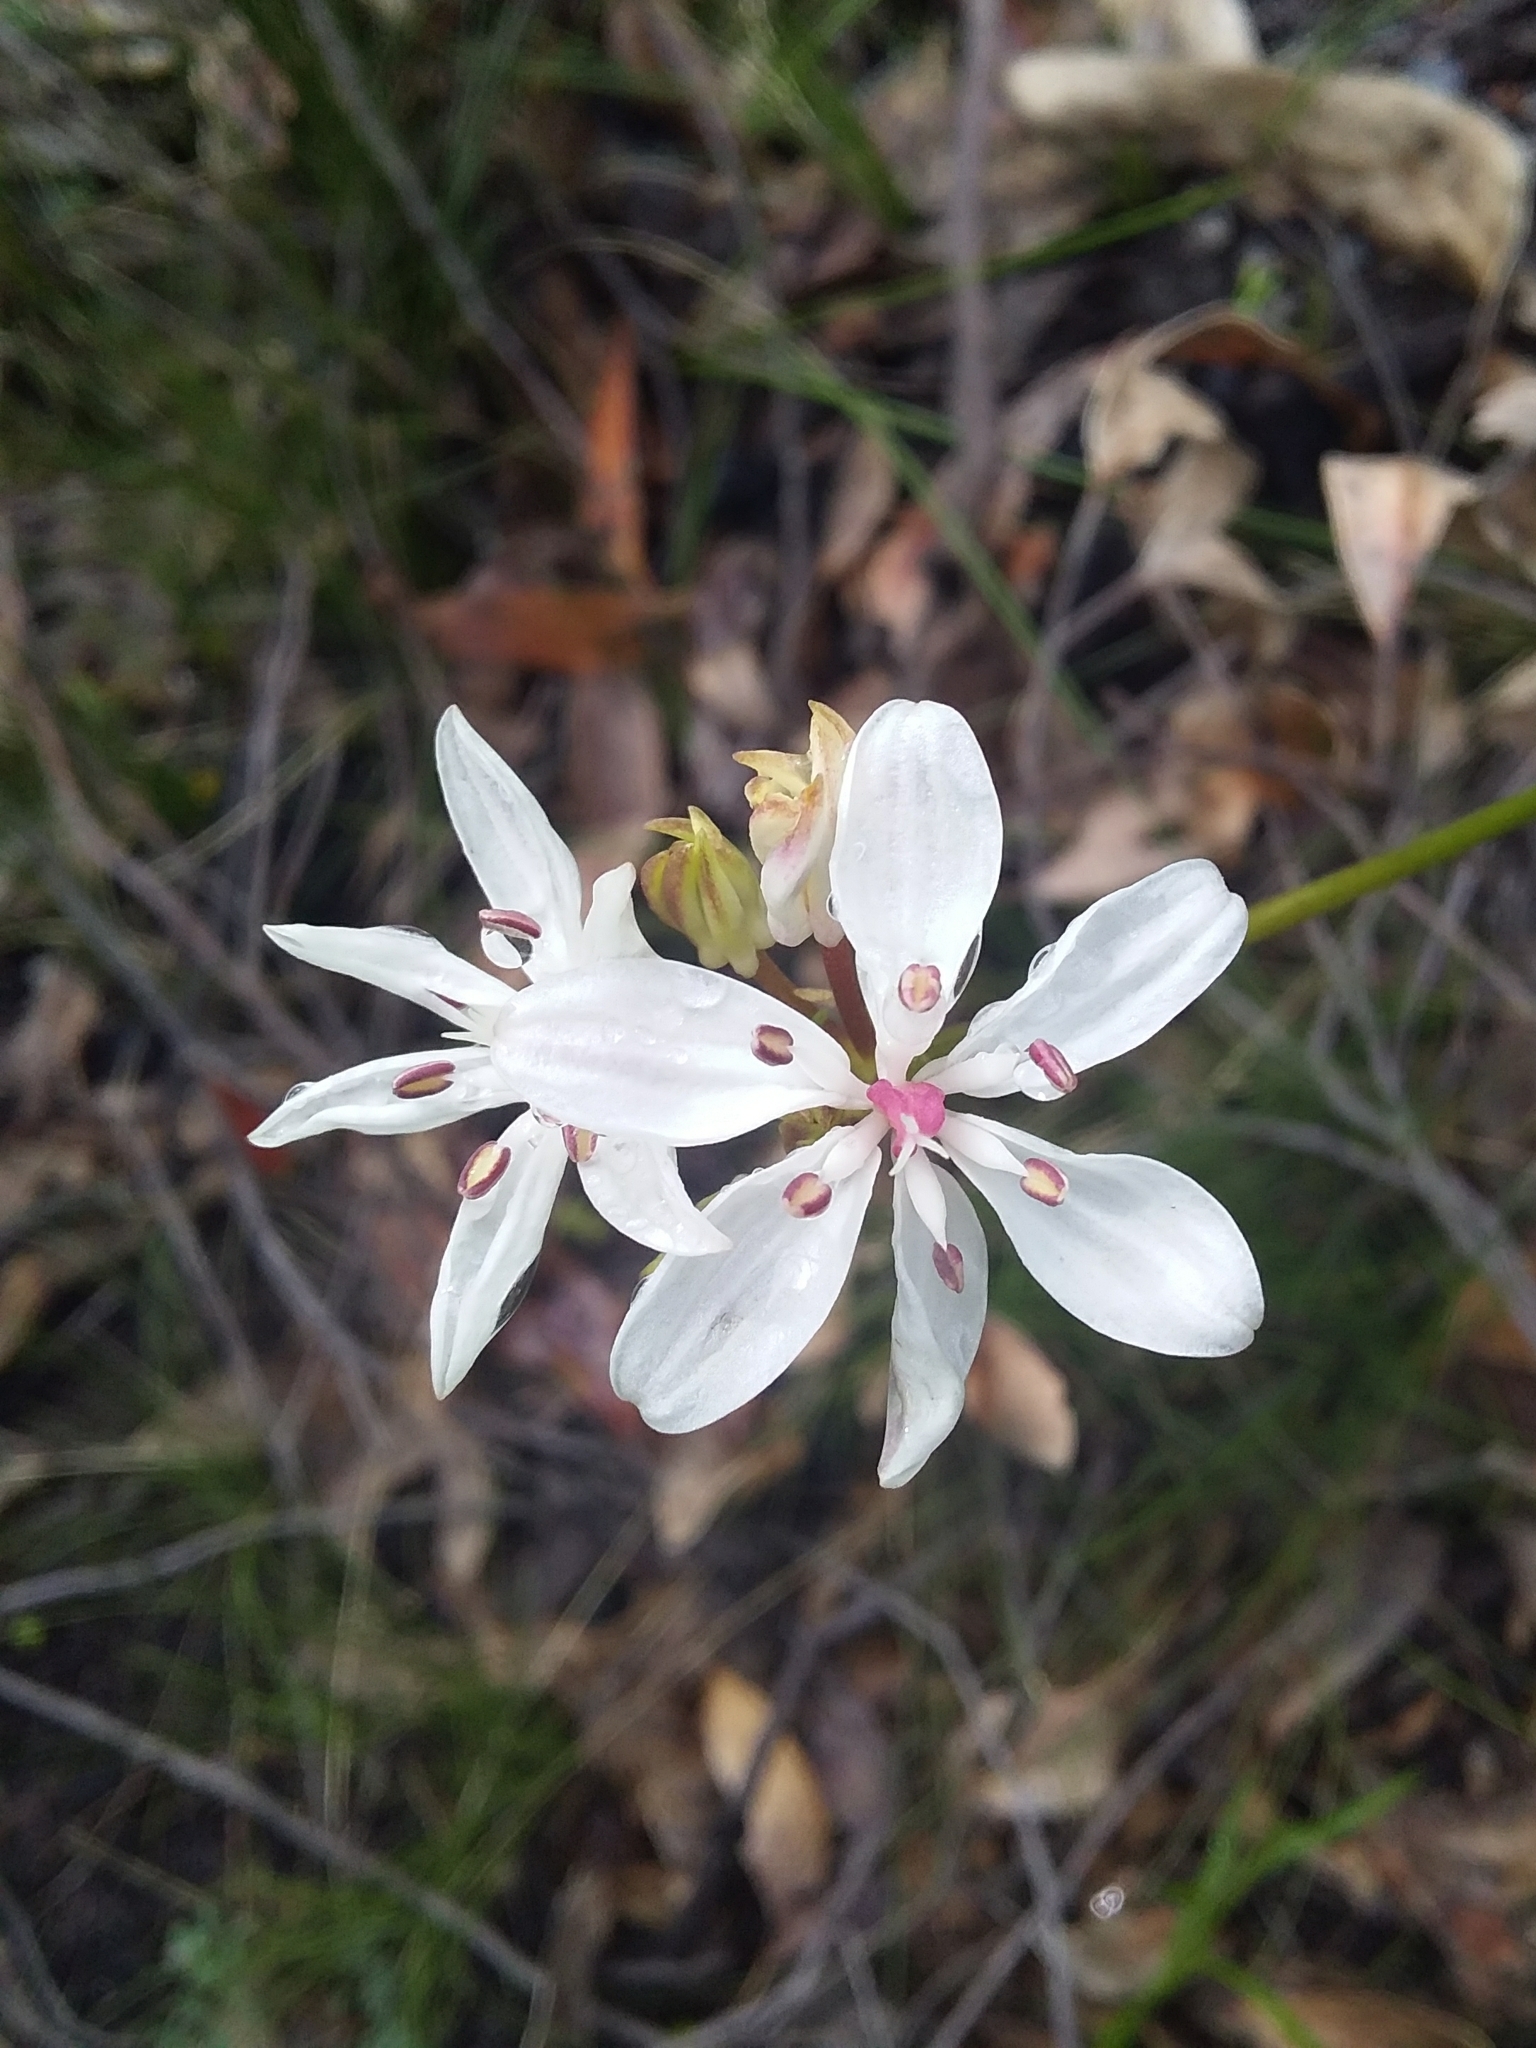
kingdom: Plantae
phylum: Tracheophyta
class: Liliopsida
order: Liliales
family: Colchicaceae
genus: Burchardia
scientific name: Burchardia umbellata
